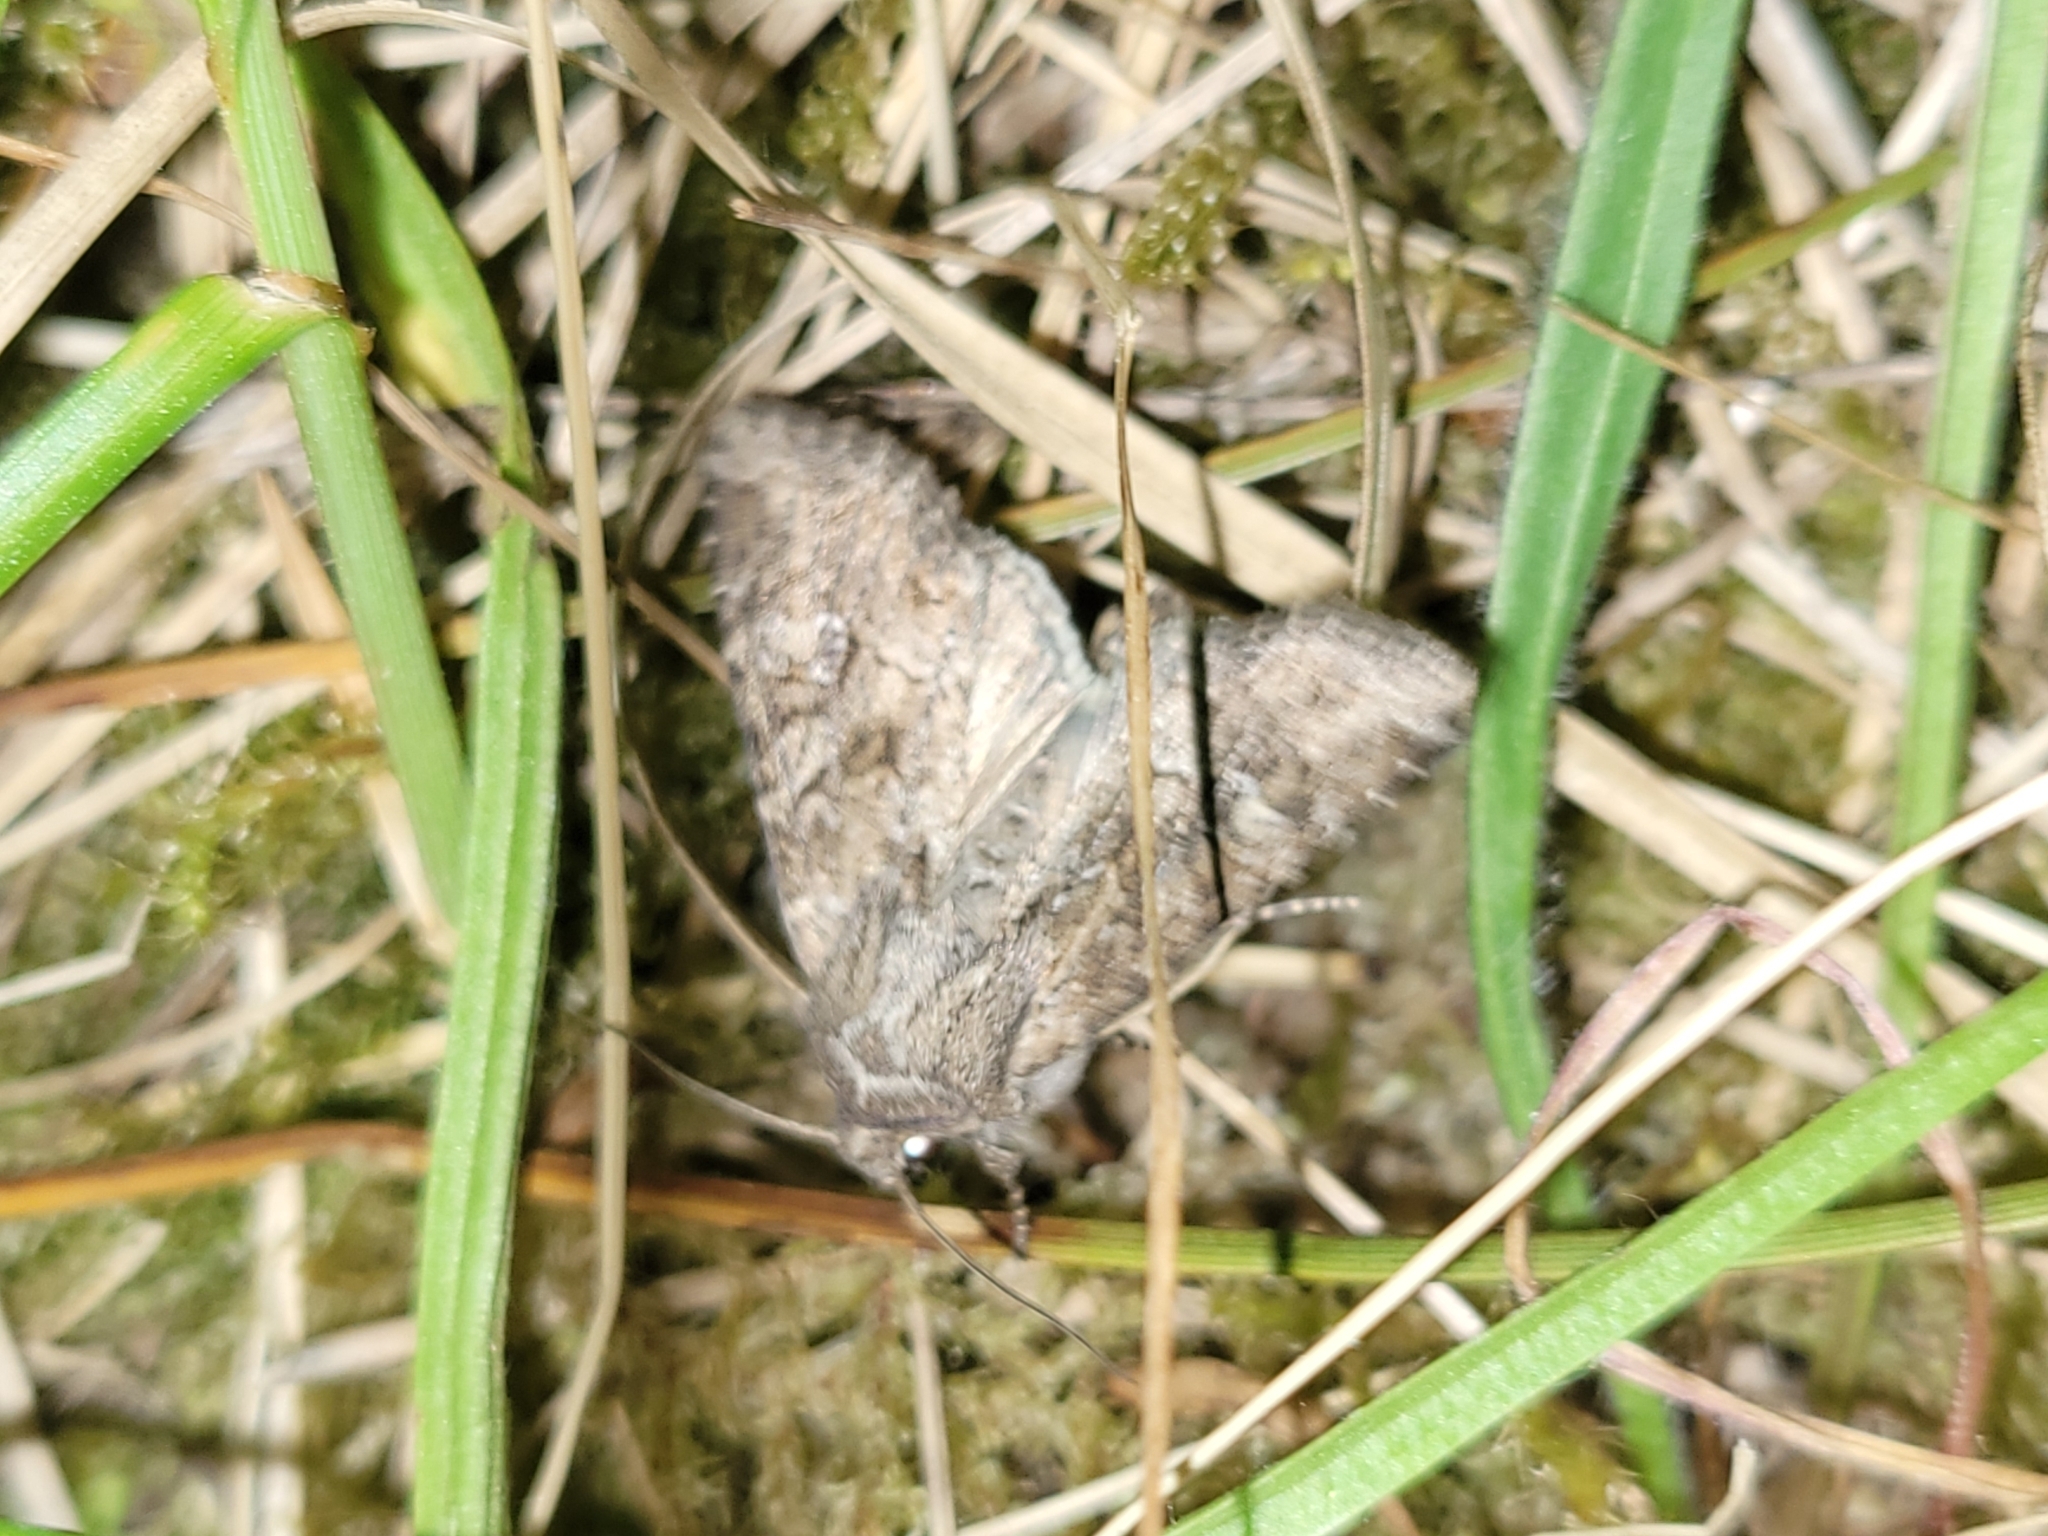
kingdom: Animalia
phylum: Arthropoda
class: Insecta
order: Lepidoptera
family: Noctuidae
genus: Anarta
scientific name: Anarta trifolii
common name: Clover cutworm moth
